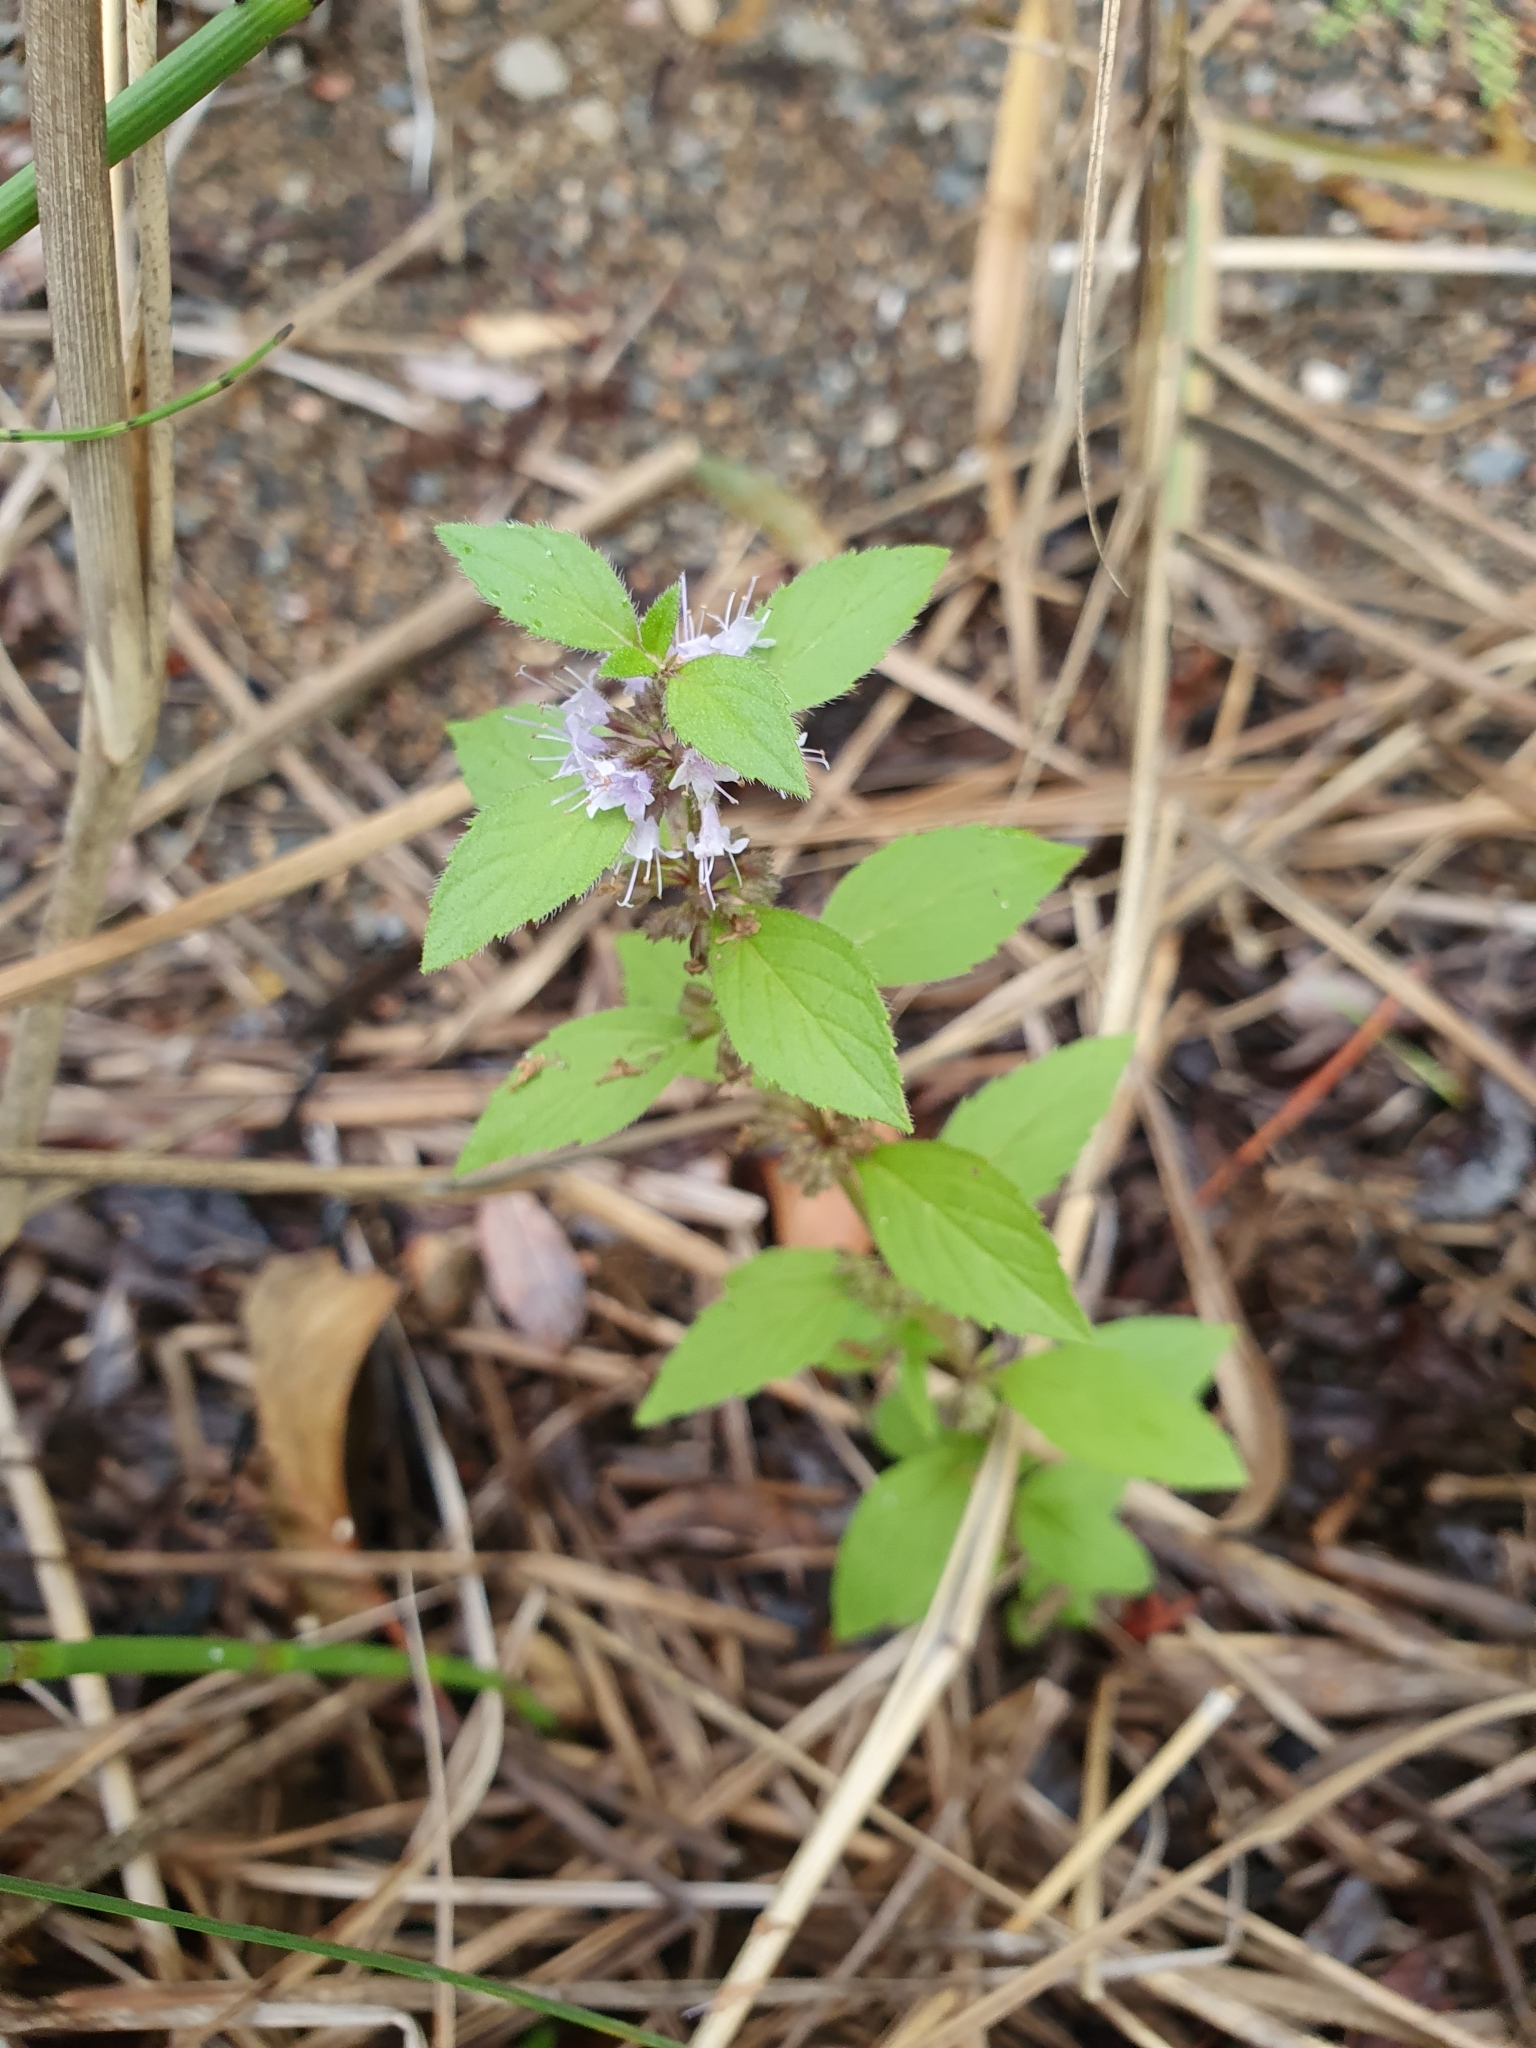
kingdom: Plantae
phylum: Tracheophyta
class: Magnoliopsida
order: Lamiales
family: Lamiaceae
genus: Mentha
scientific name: Mentha arvensis
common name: Corn mint
